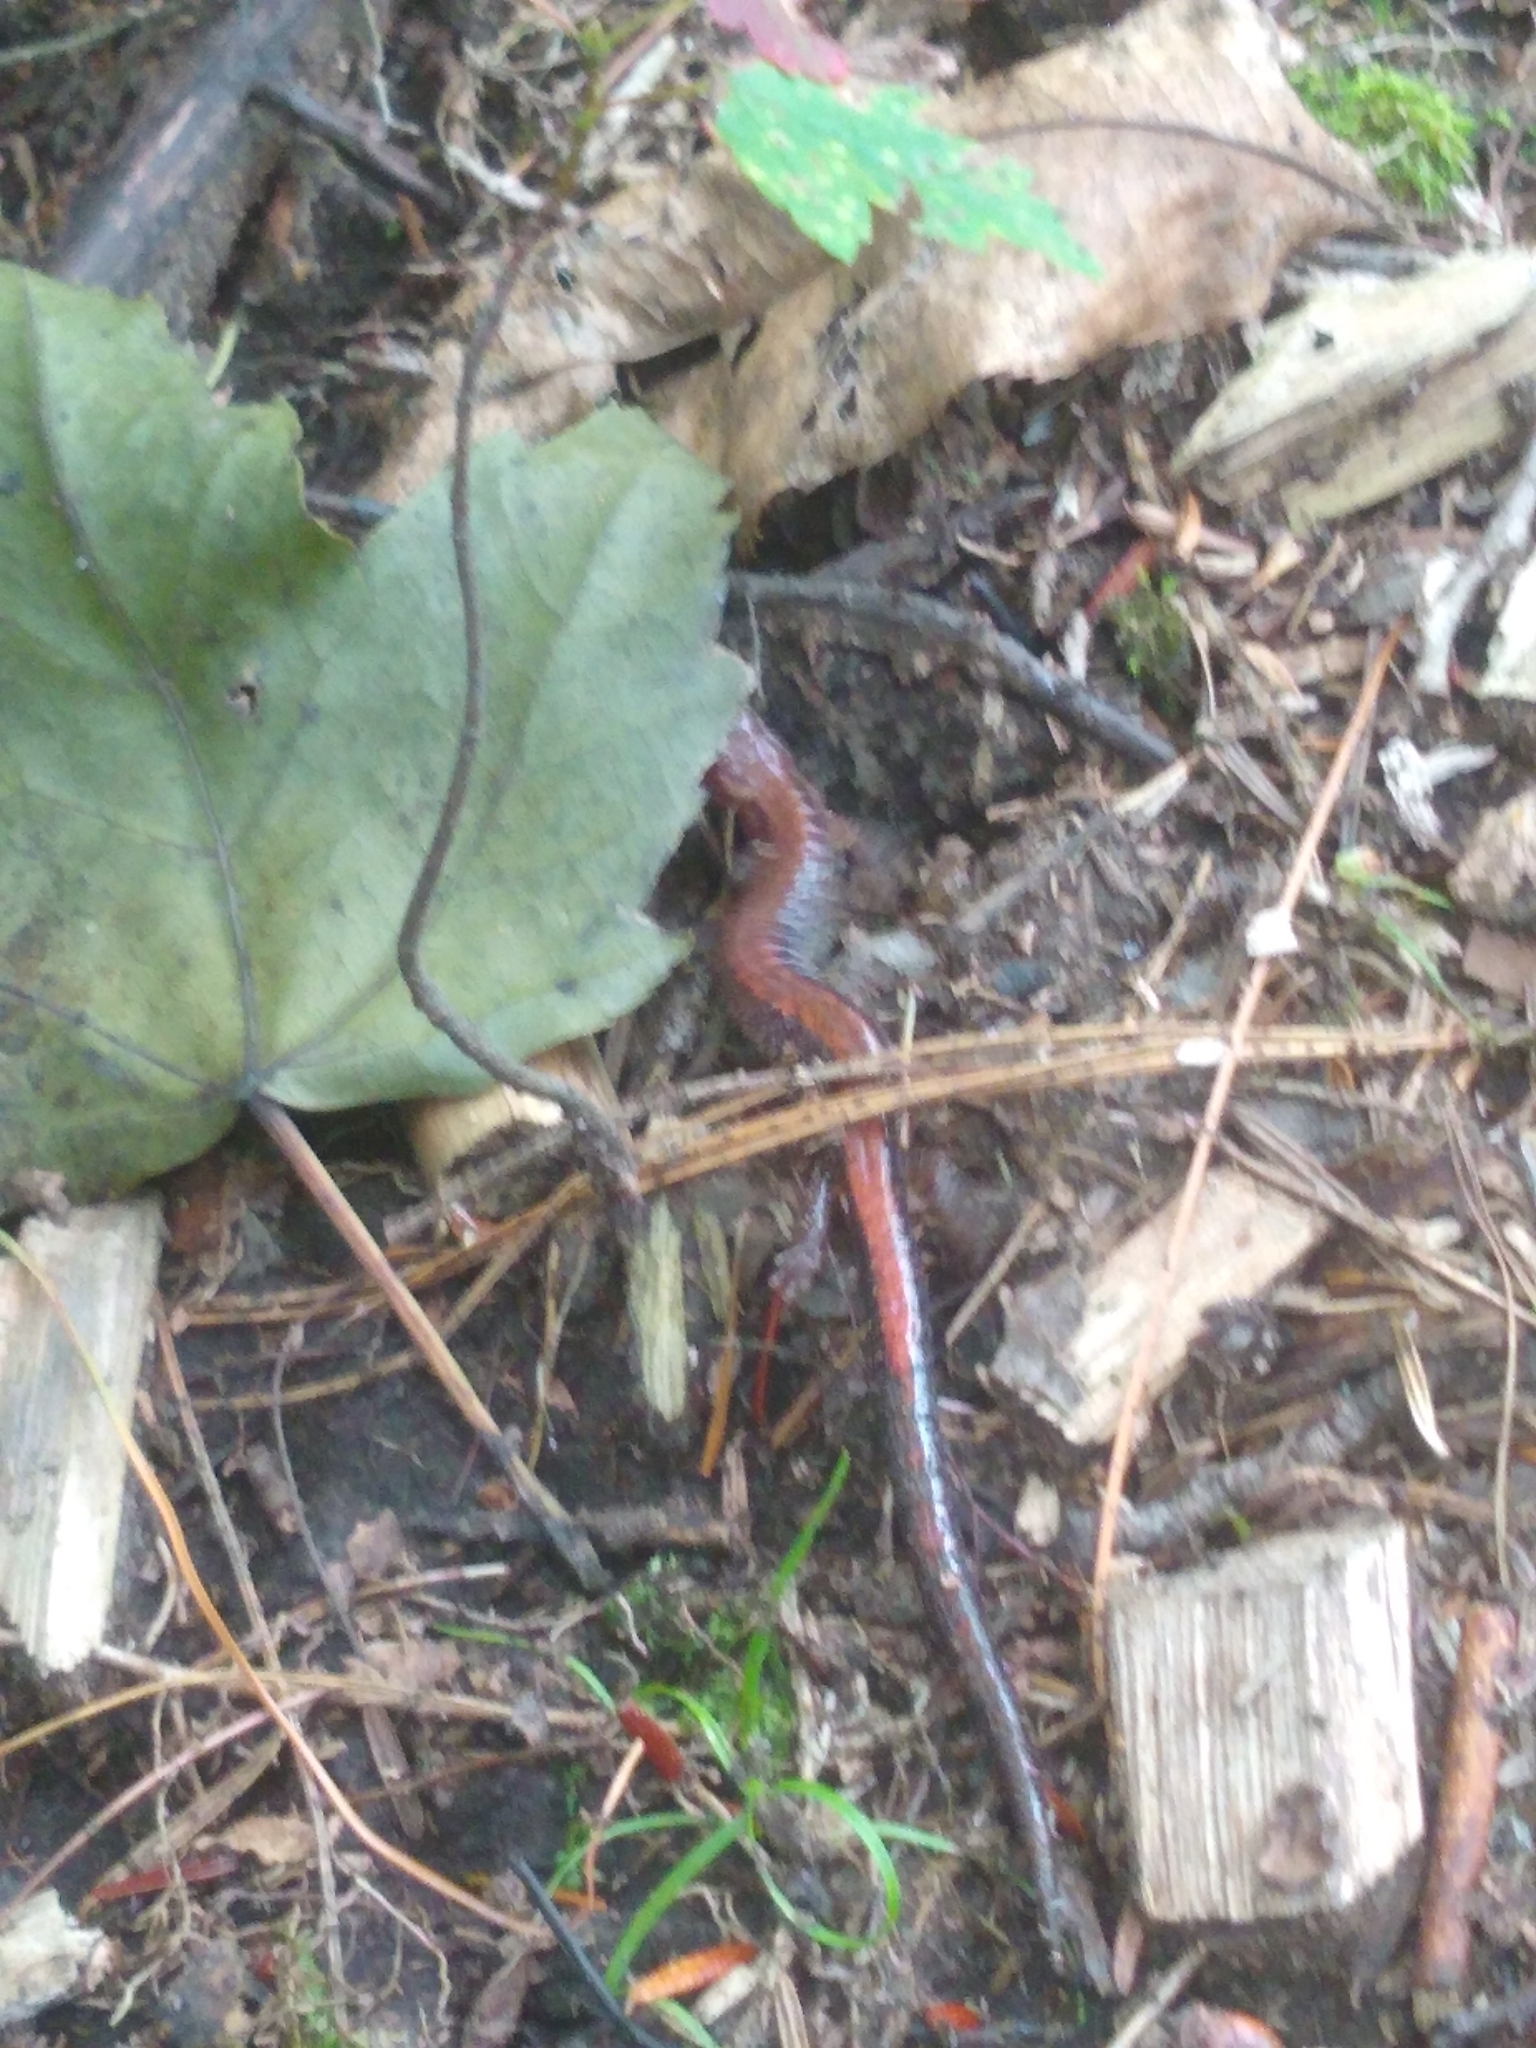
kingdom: Animalia
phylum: Chordata
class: Amphibia
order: Caudata
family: Plethodontidae
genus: Plethodon
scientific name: Plethodon cinereus
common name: Redback salamander
